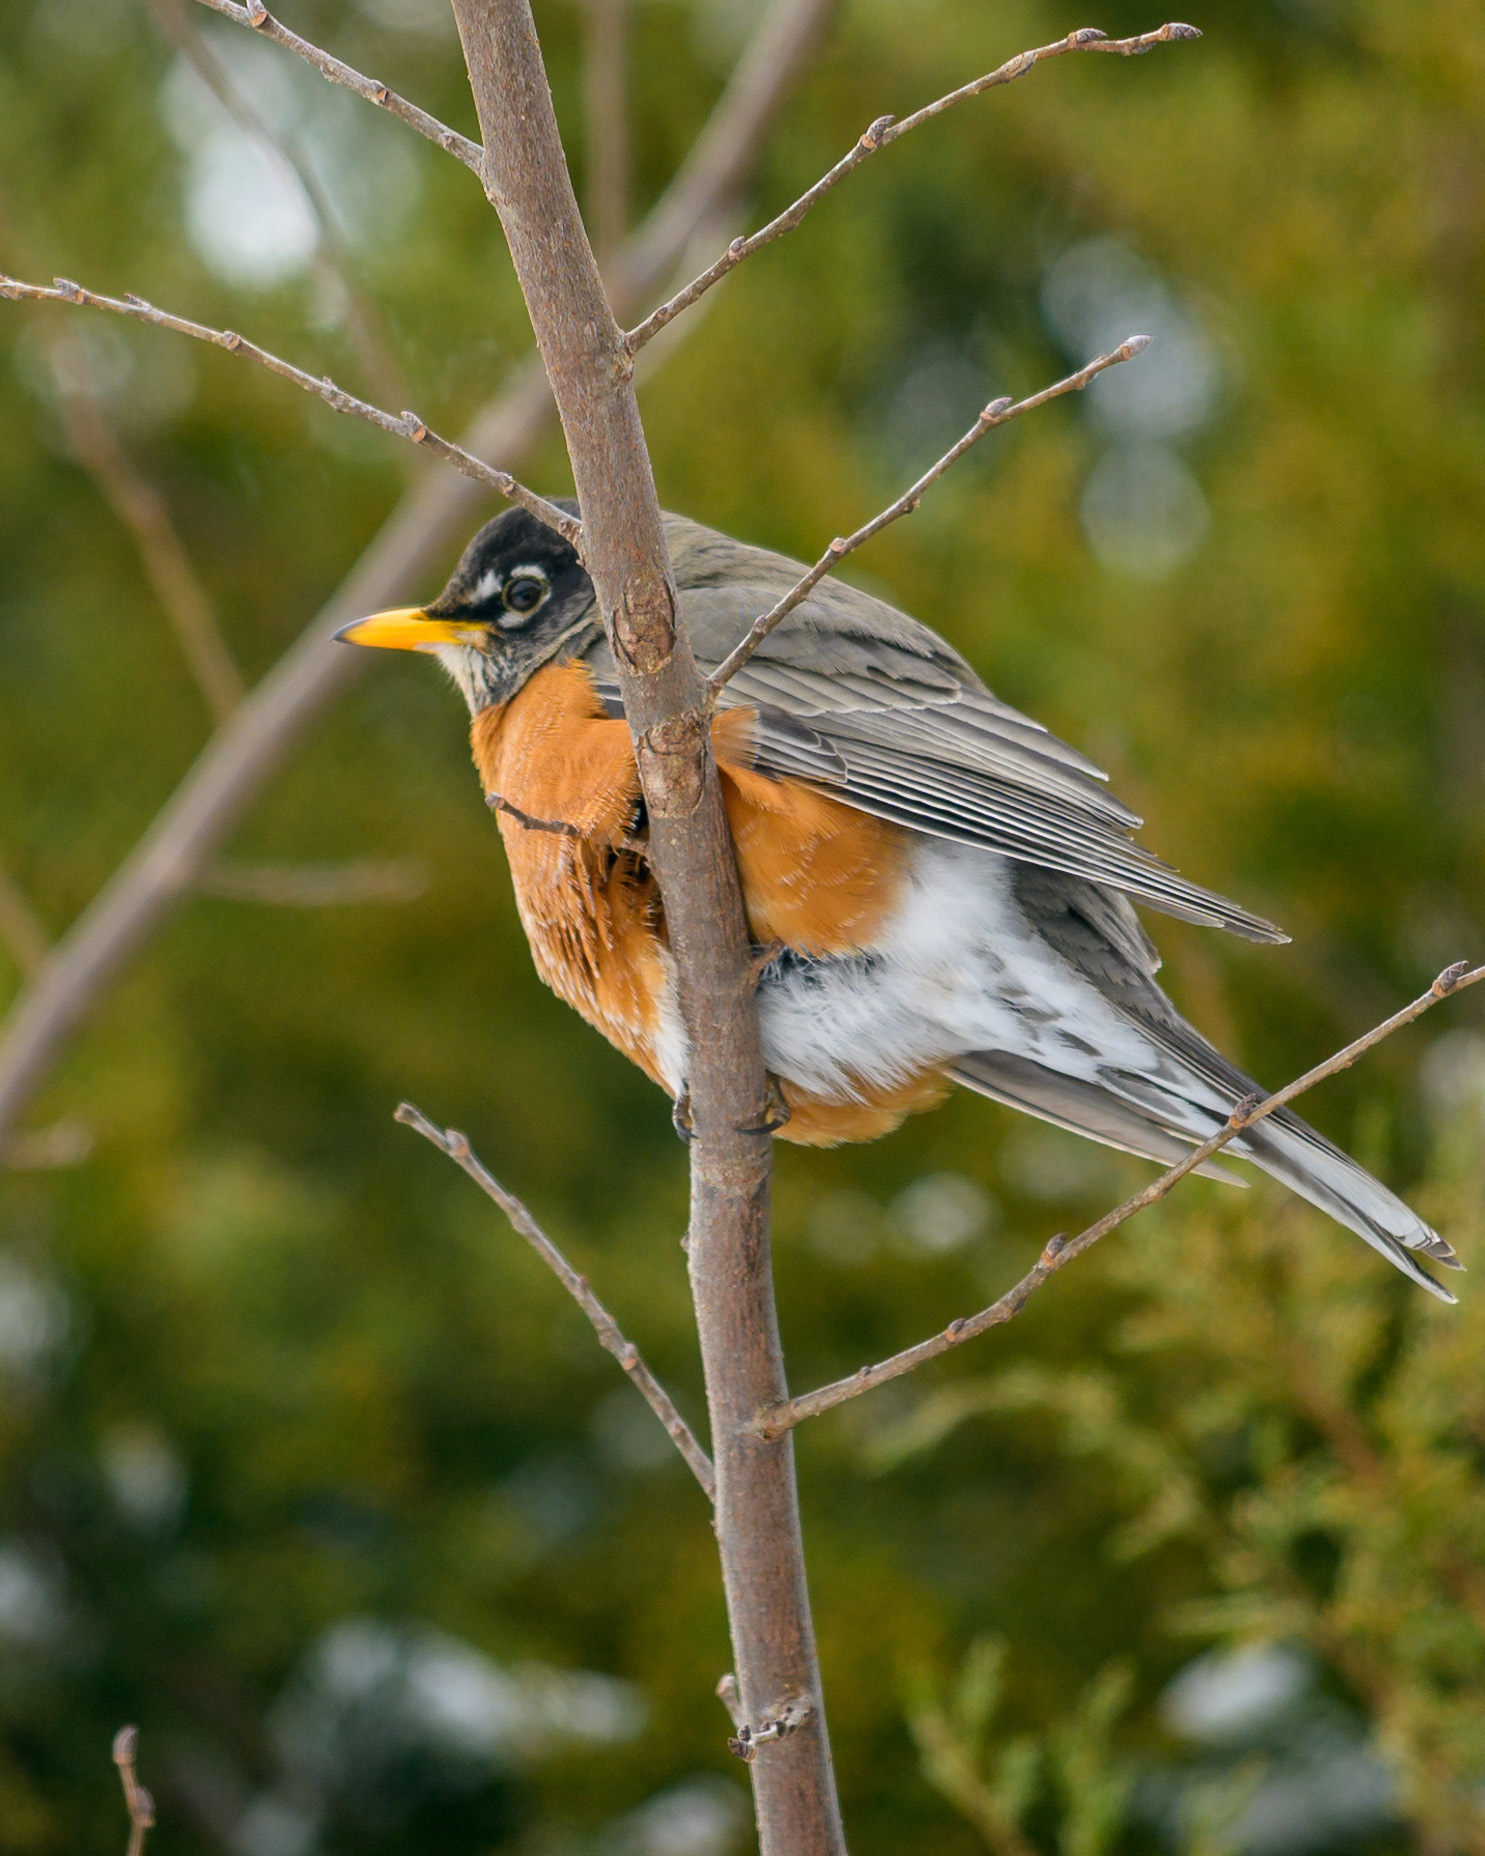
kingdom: Animalia
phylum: Chordata
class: Aves
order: Passeriformes
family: Turdidae
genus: Turdus
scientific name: Turdus migratorius
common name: American robin
